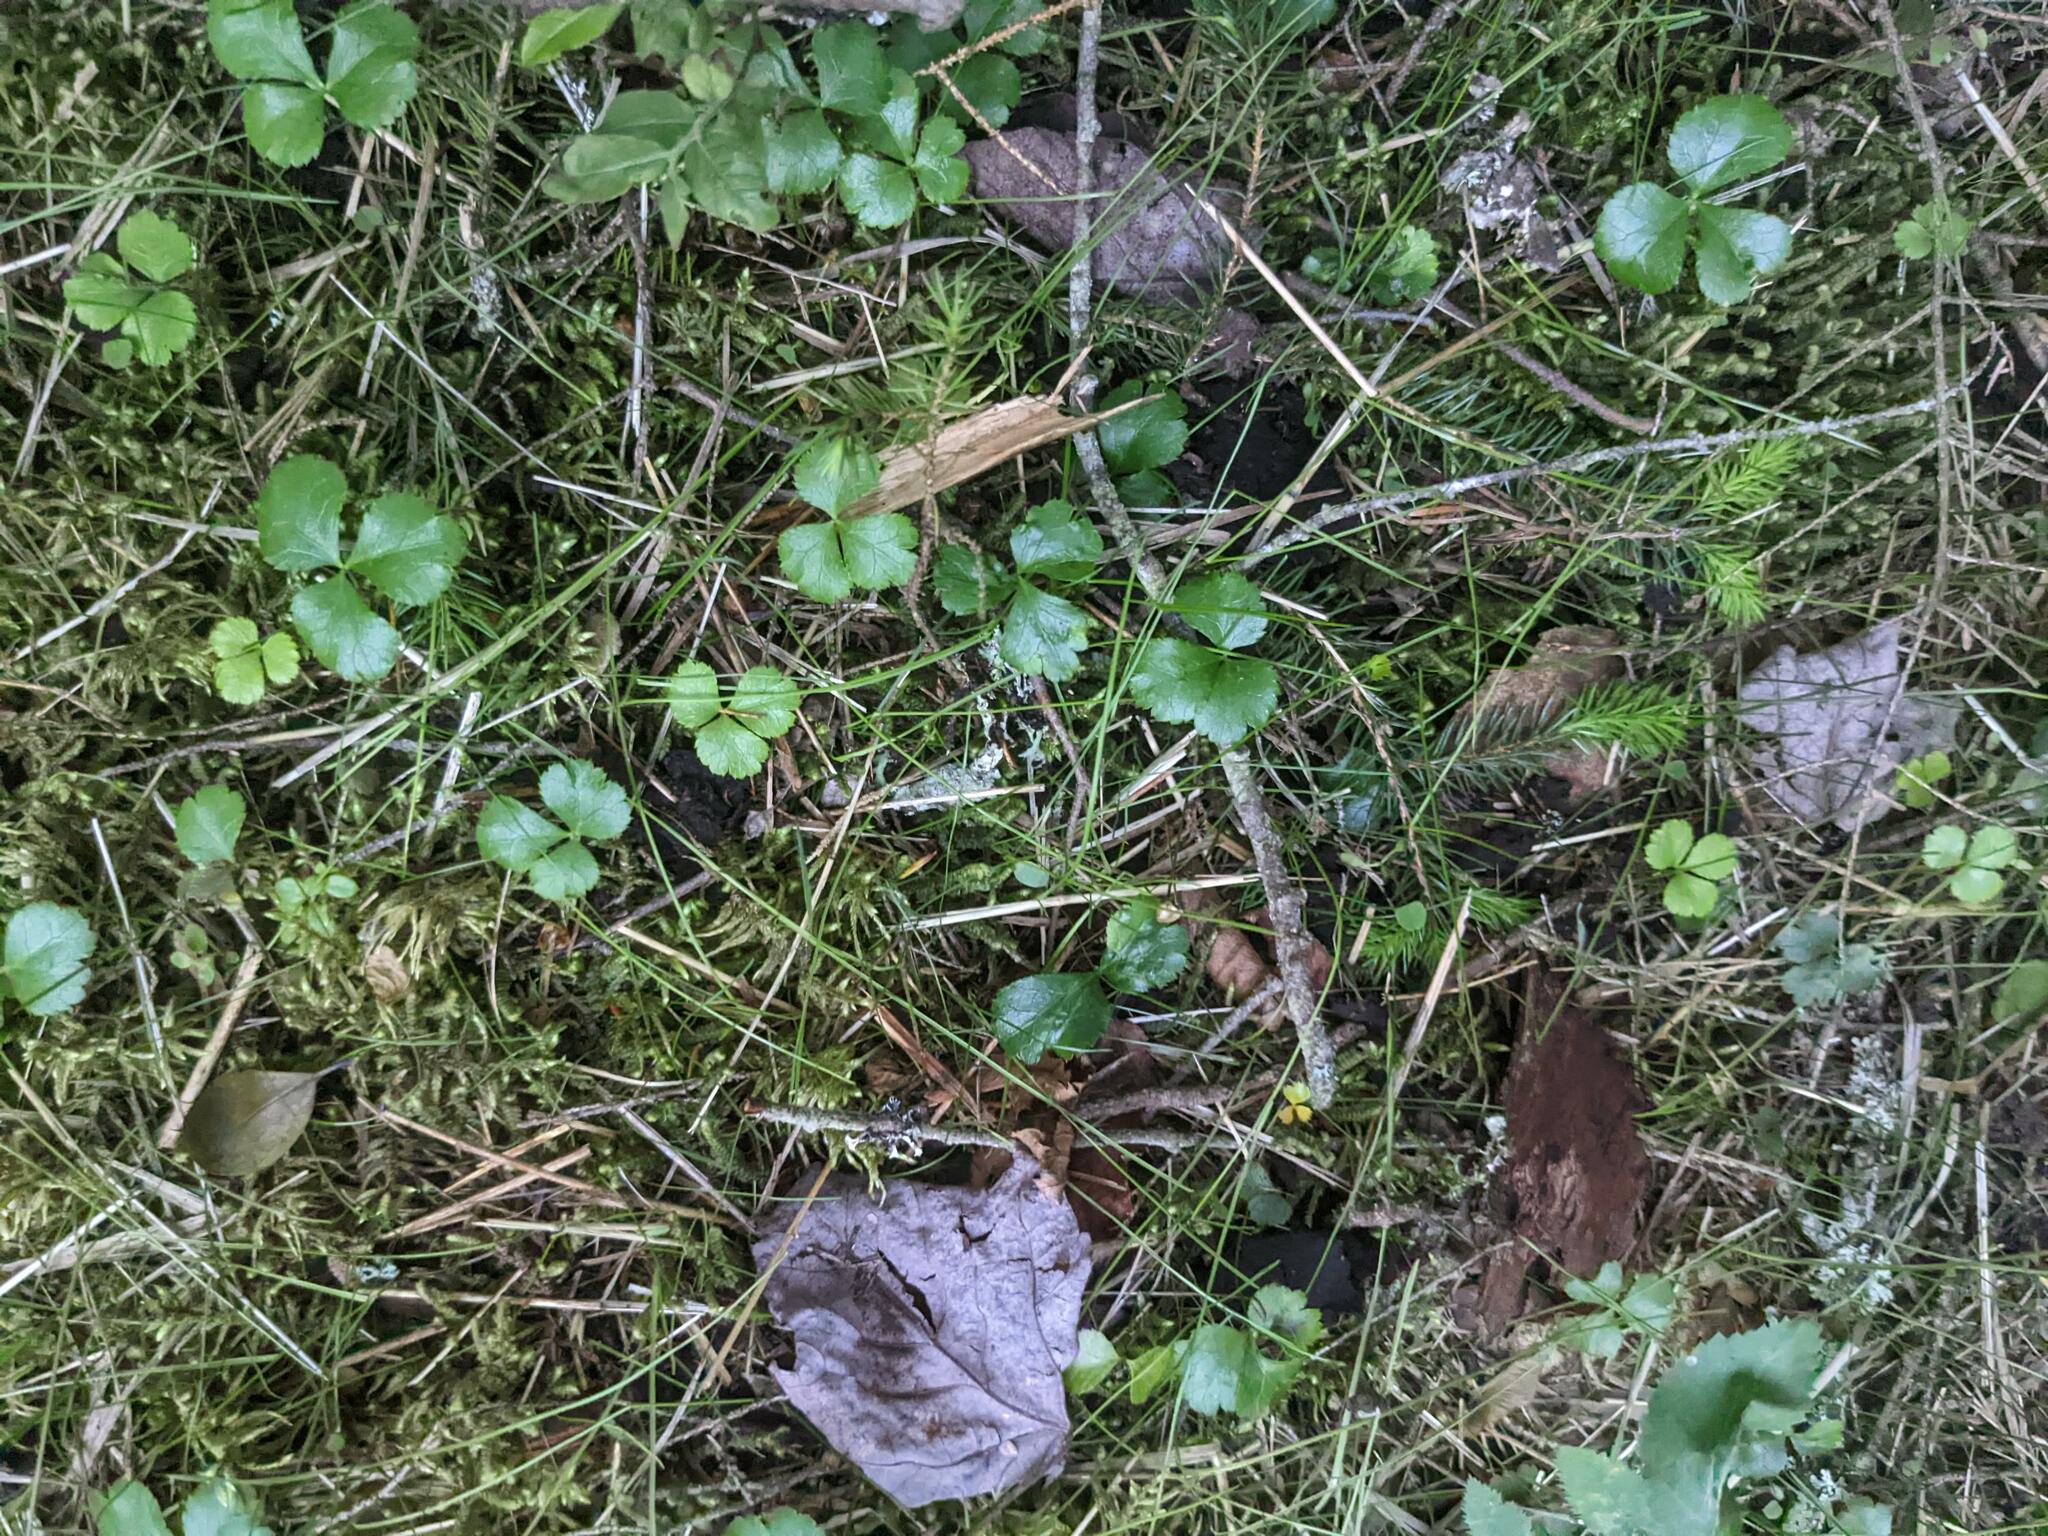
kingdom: Plantae
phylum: Tracheophyta
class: Magnoliopsida
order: Ranunculales
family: Ranunculaceae
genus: Coptis
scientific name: Coptis trifolia
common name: Canker-root
